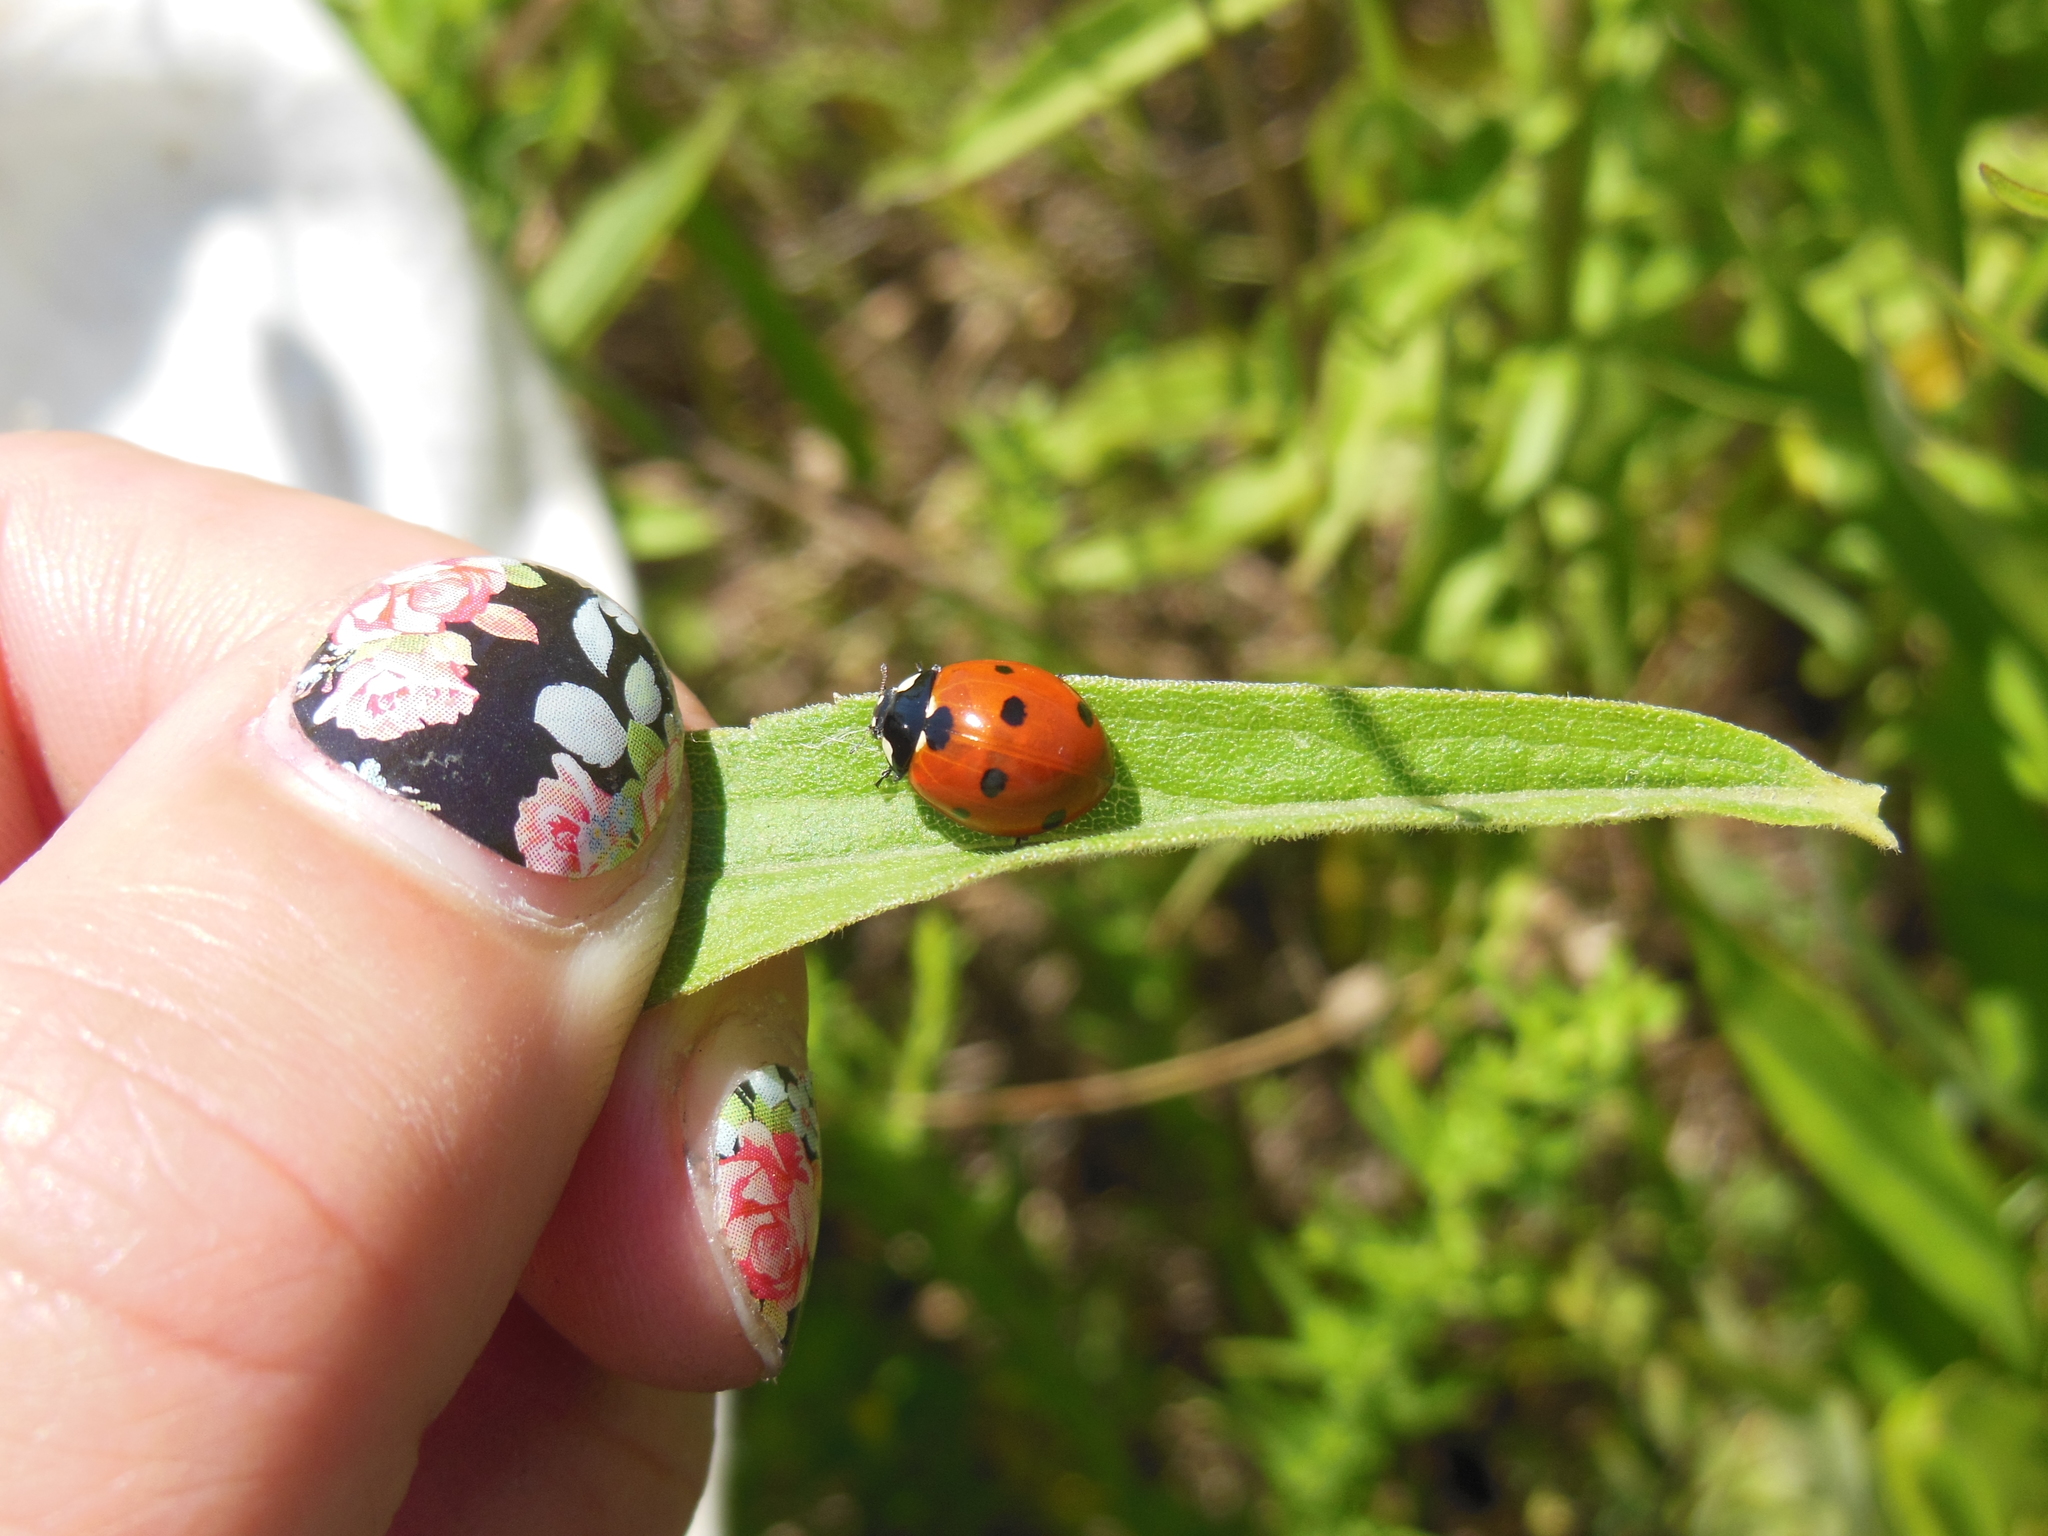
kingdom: Animalia
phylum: Arthropoda
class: Insecta
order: Coleoptera
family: Coccinellidae
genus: Coccinella
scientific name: Coccinella septempunctata
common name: Sevenspotted lady beetle
